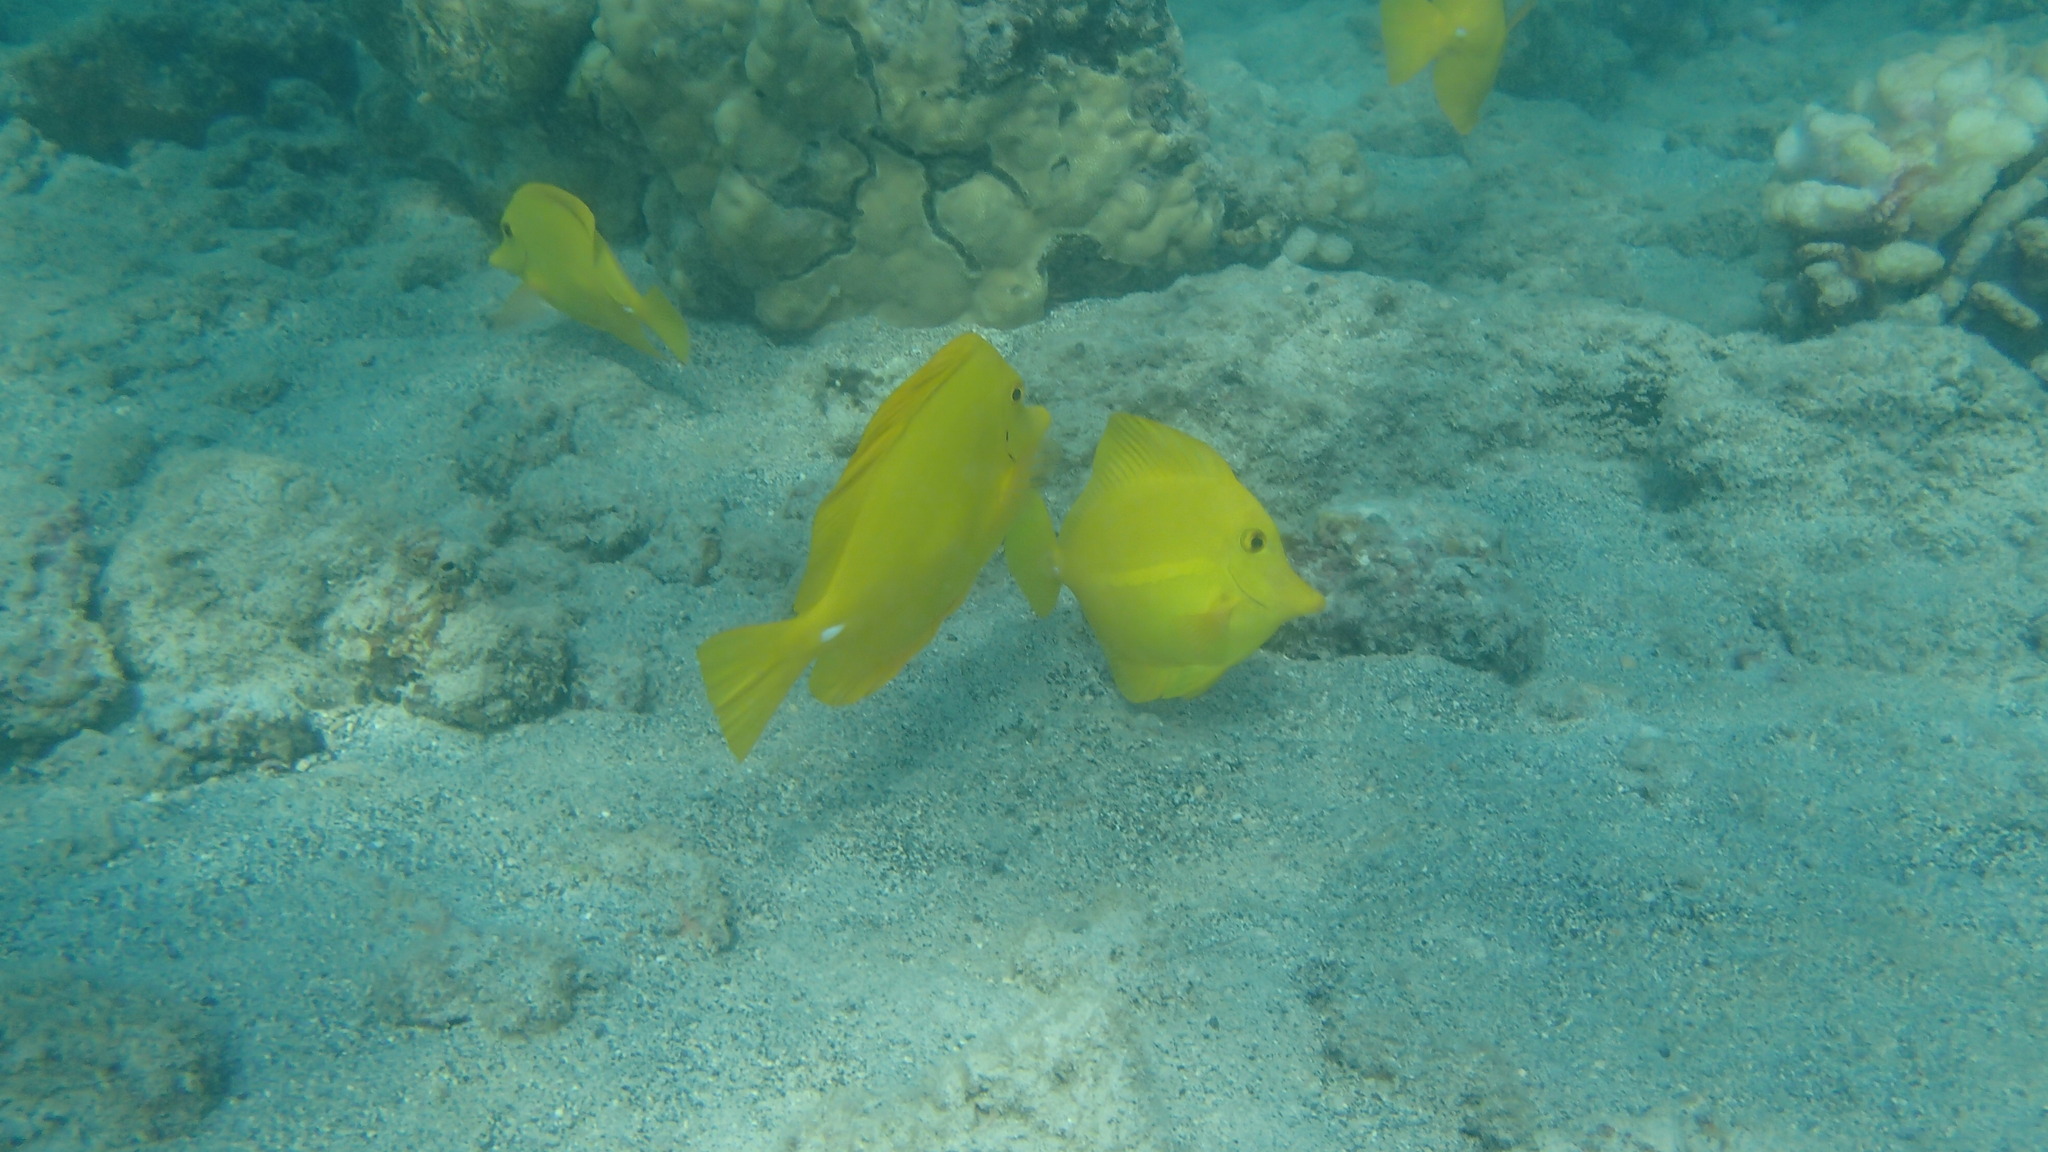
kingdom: Animalia
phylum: Chordata
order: Perciformes
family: Acanthuridae
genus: Zebrasoma
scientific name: Zebrasoma flavescens
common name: Yellow tang
